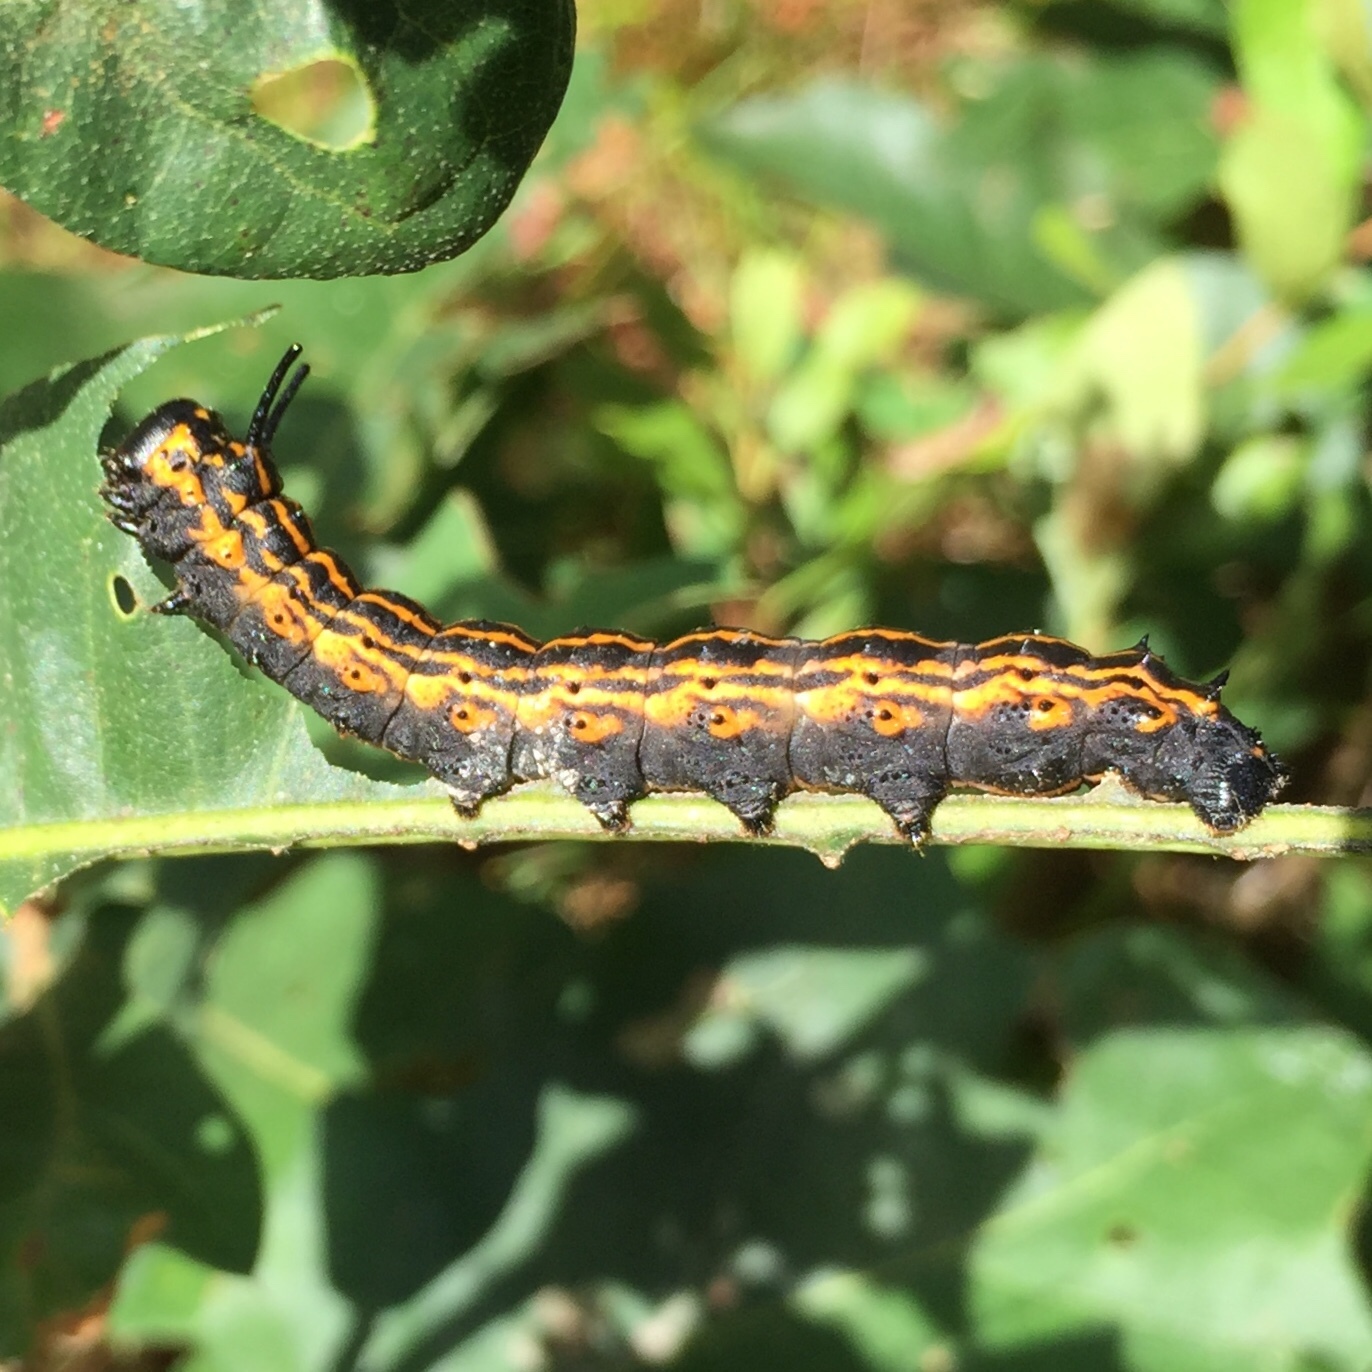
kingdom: Animalia
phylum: Arthropoda
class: Insecta
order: Lepidoptera
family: Saturniidae
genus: Anisota
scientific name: Anisota senatoria
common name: Orange-striped oakworm moth
